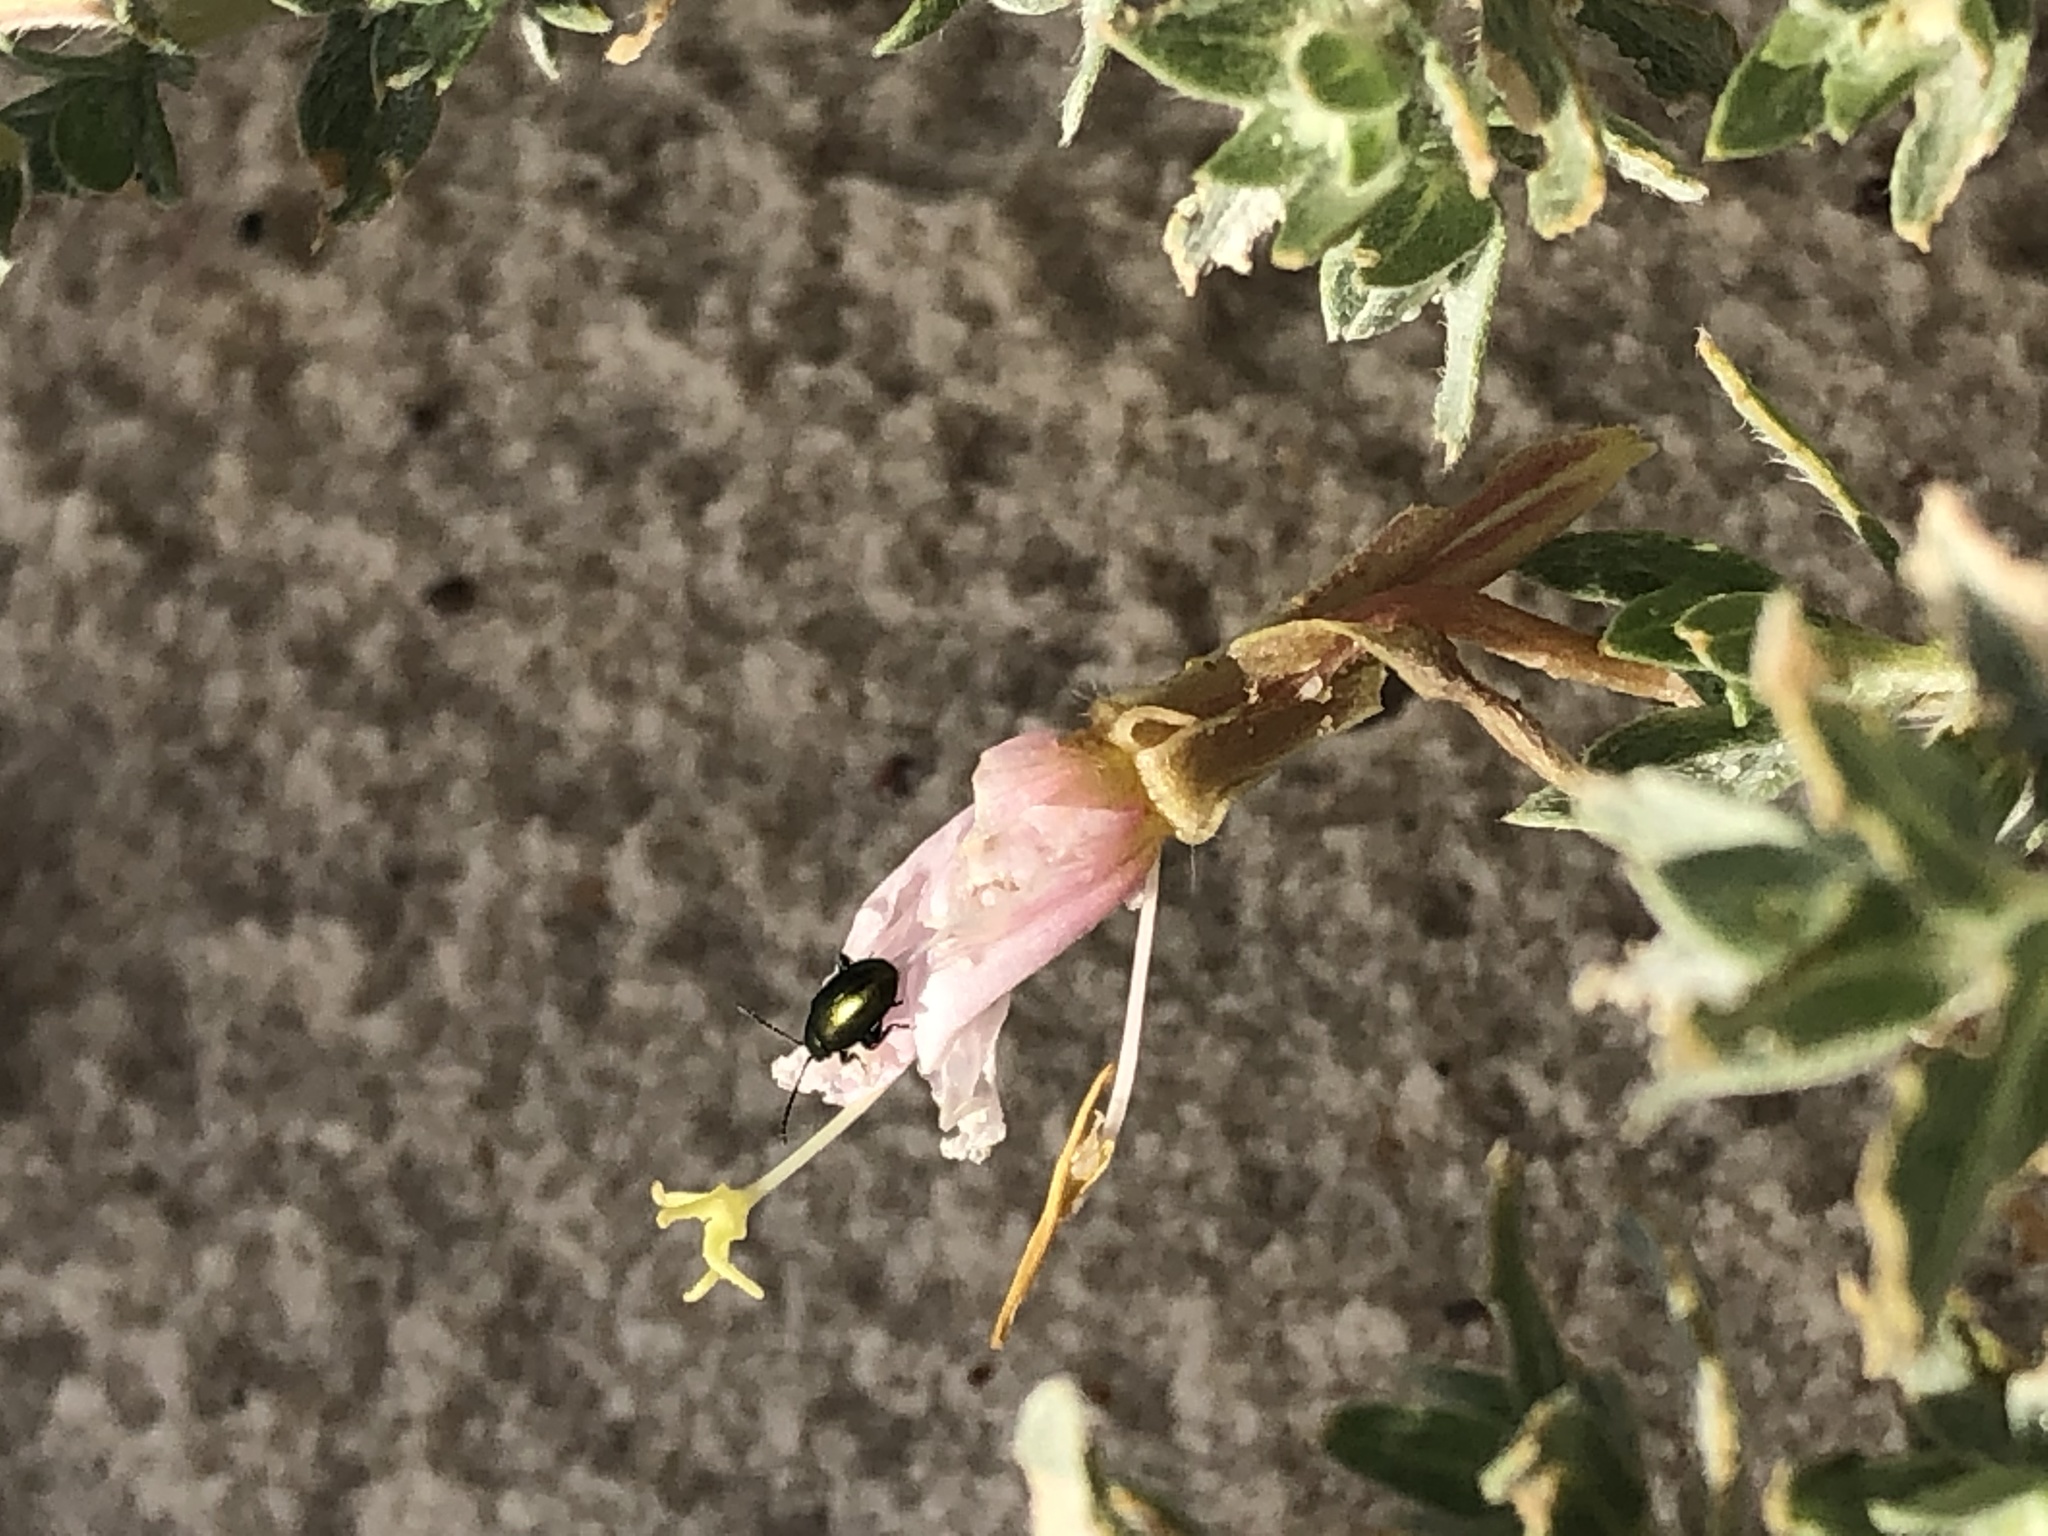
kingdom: Plantae
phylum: Tracheophyta
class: Magnoliopsida
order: Myrtales
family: Onagraceae
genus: Oenothera
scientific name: Oenothera pallida
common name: Pale evening-primrose
